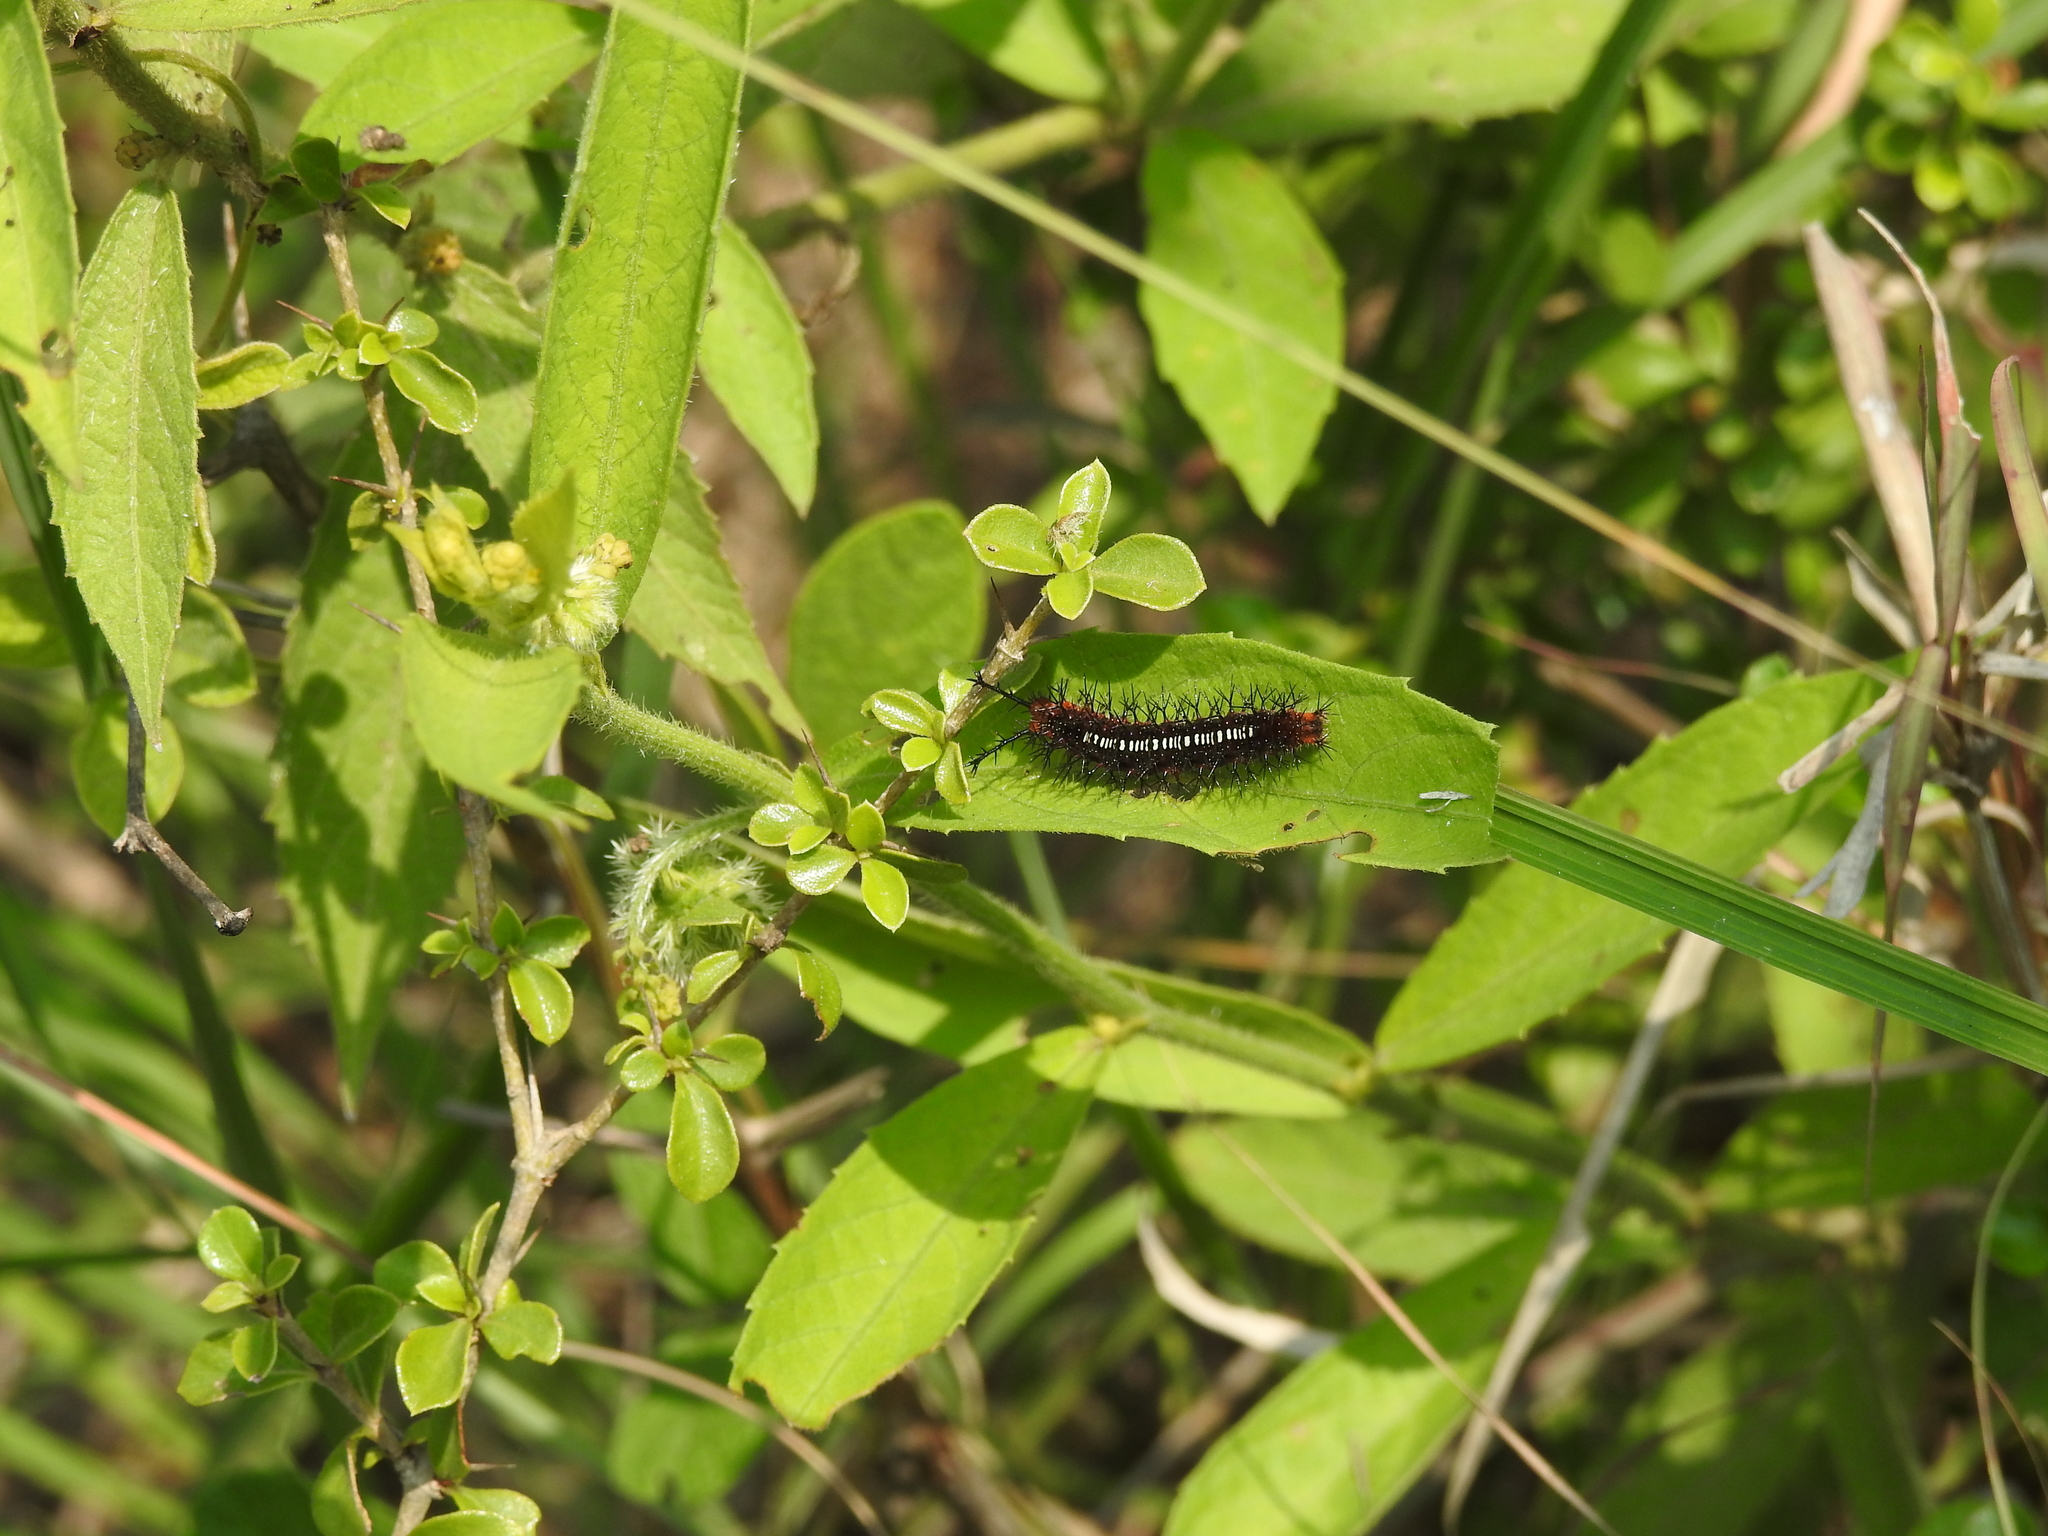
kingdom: Animalia
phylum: Arthropoda
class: Insecta
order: Lepidoptera
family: Nymphalidae
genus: Ariadne
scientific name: Ariadne ariadne
